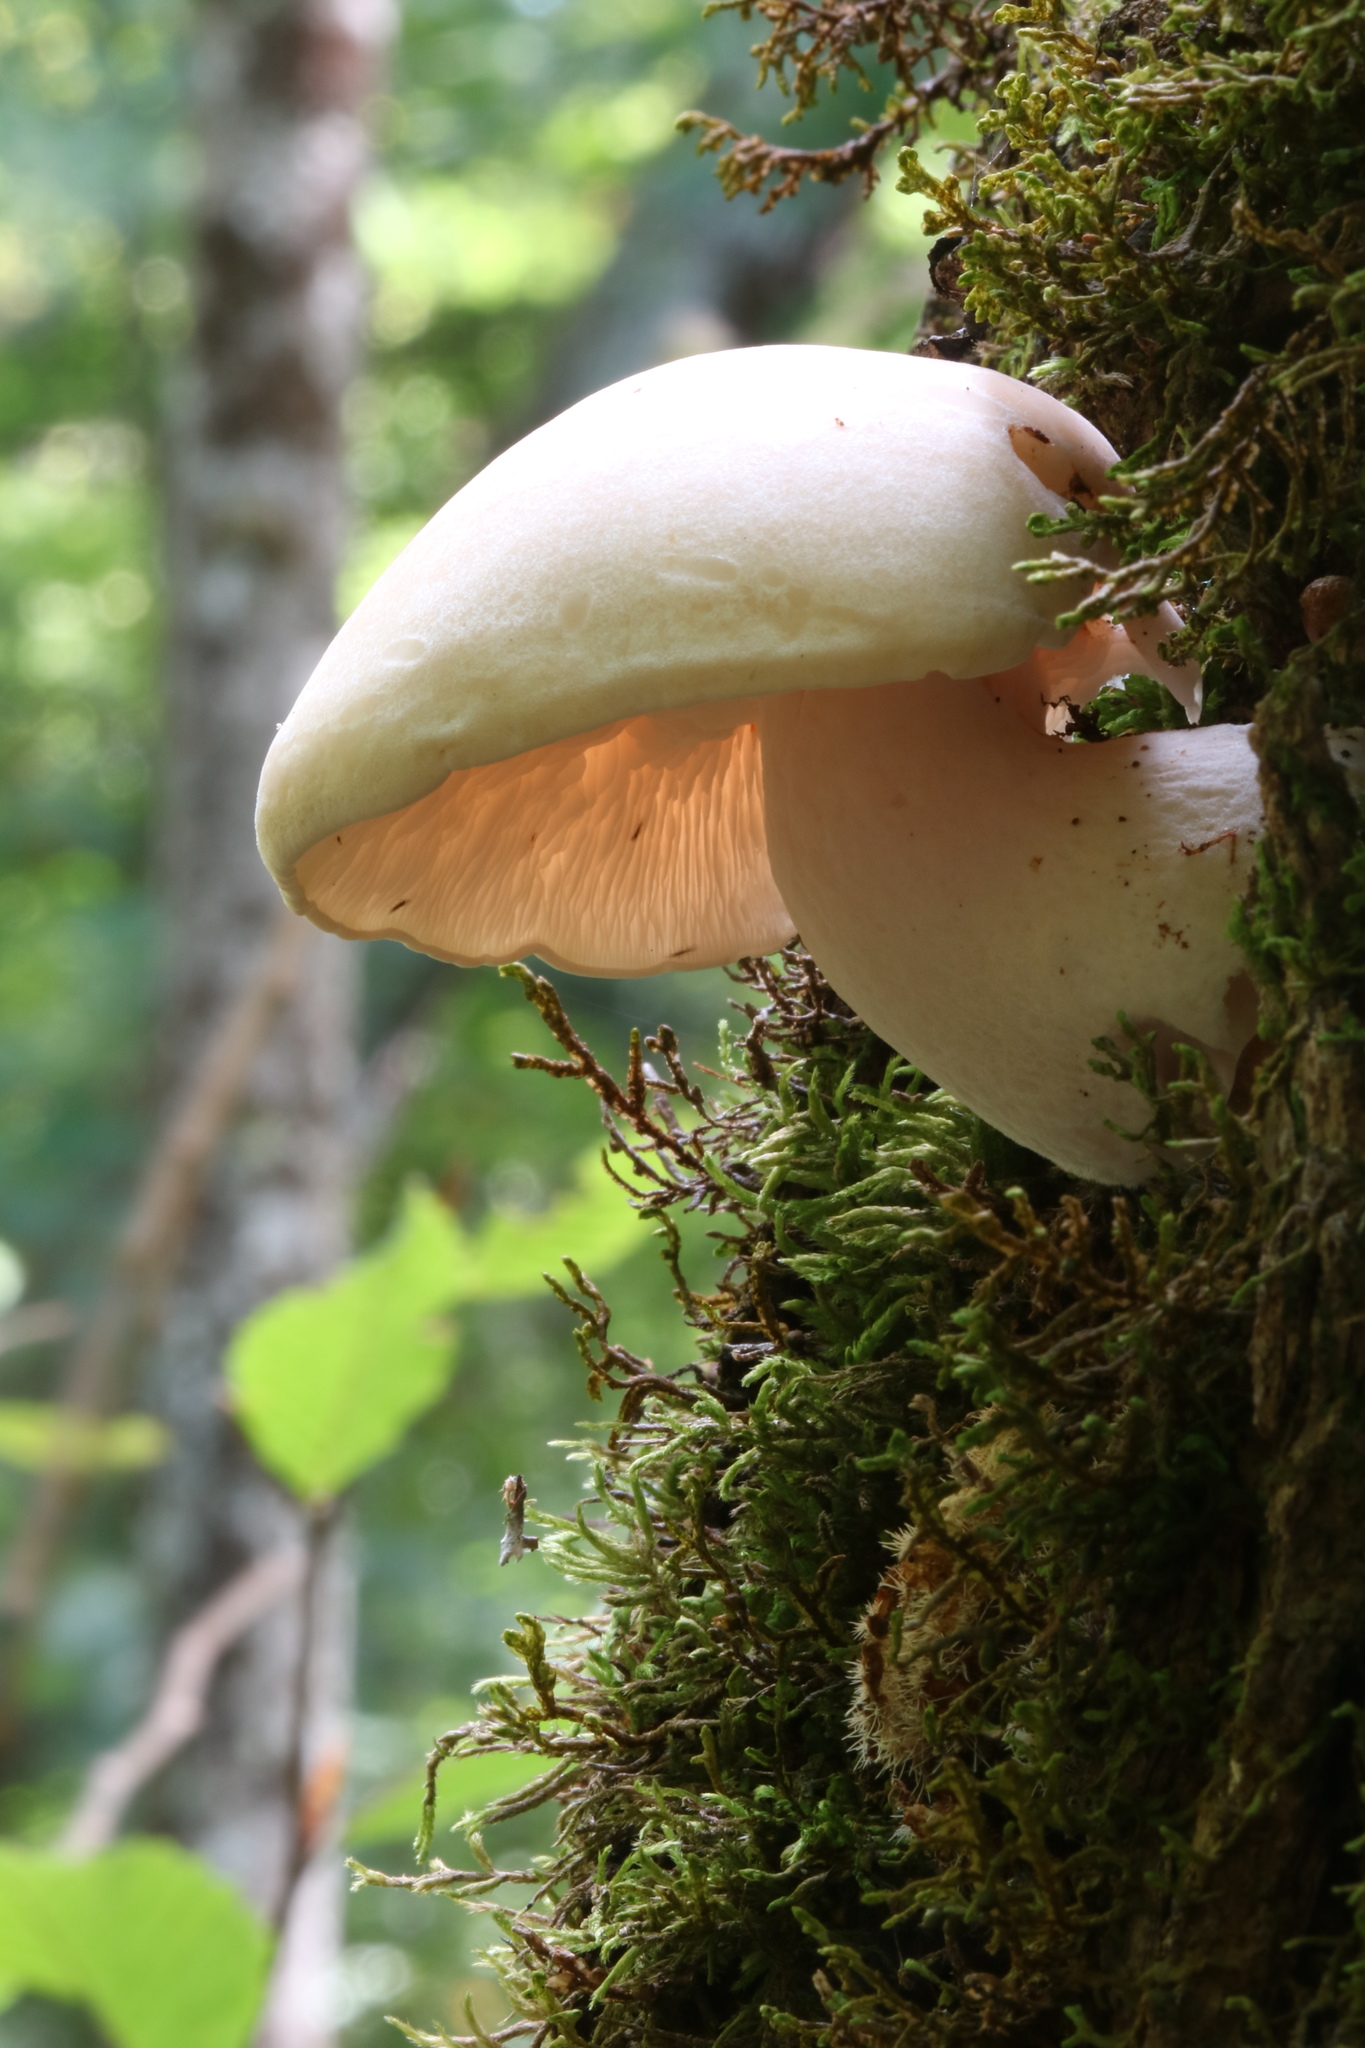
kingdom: Fungi
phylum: Basidiomycota
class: Agaricomycetes
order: Agaricales
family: Lyophyllaceae
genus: Hypsizygus
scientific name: Hypsizygus tessulatus
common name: Beech mushroom
